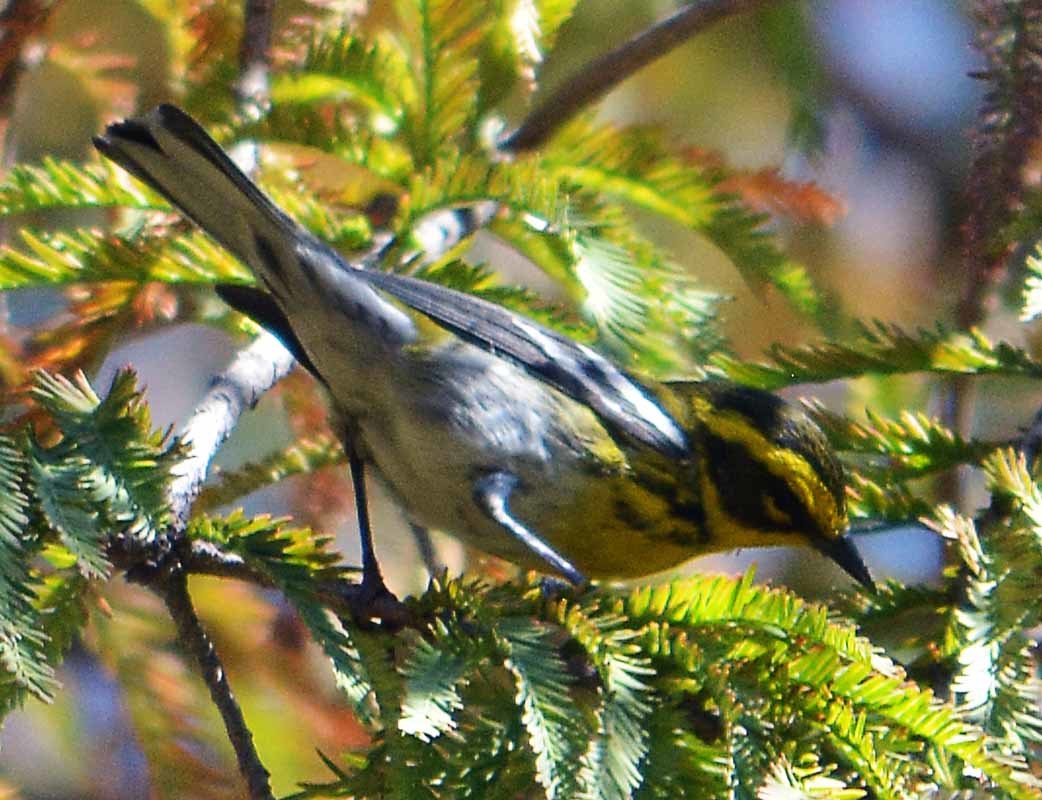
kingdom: Animalia
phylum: Chordata
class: Aves
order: Passeriformes
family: Parulidae
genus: Setophaga
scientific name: Setophaga townsendi
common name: Townsend's warbler
